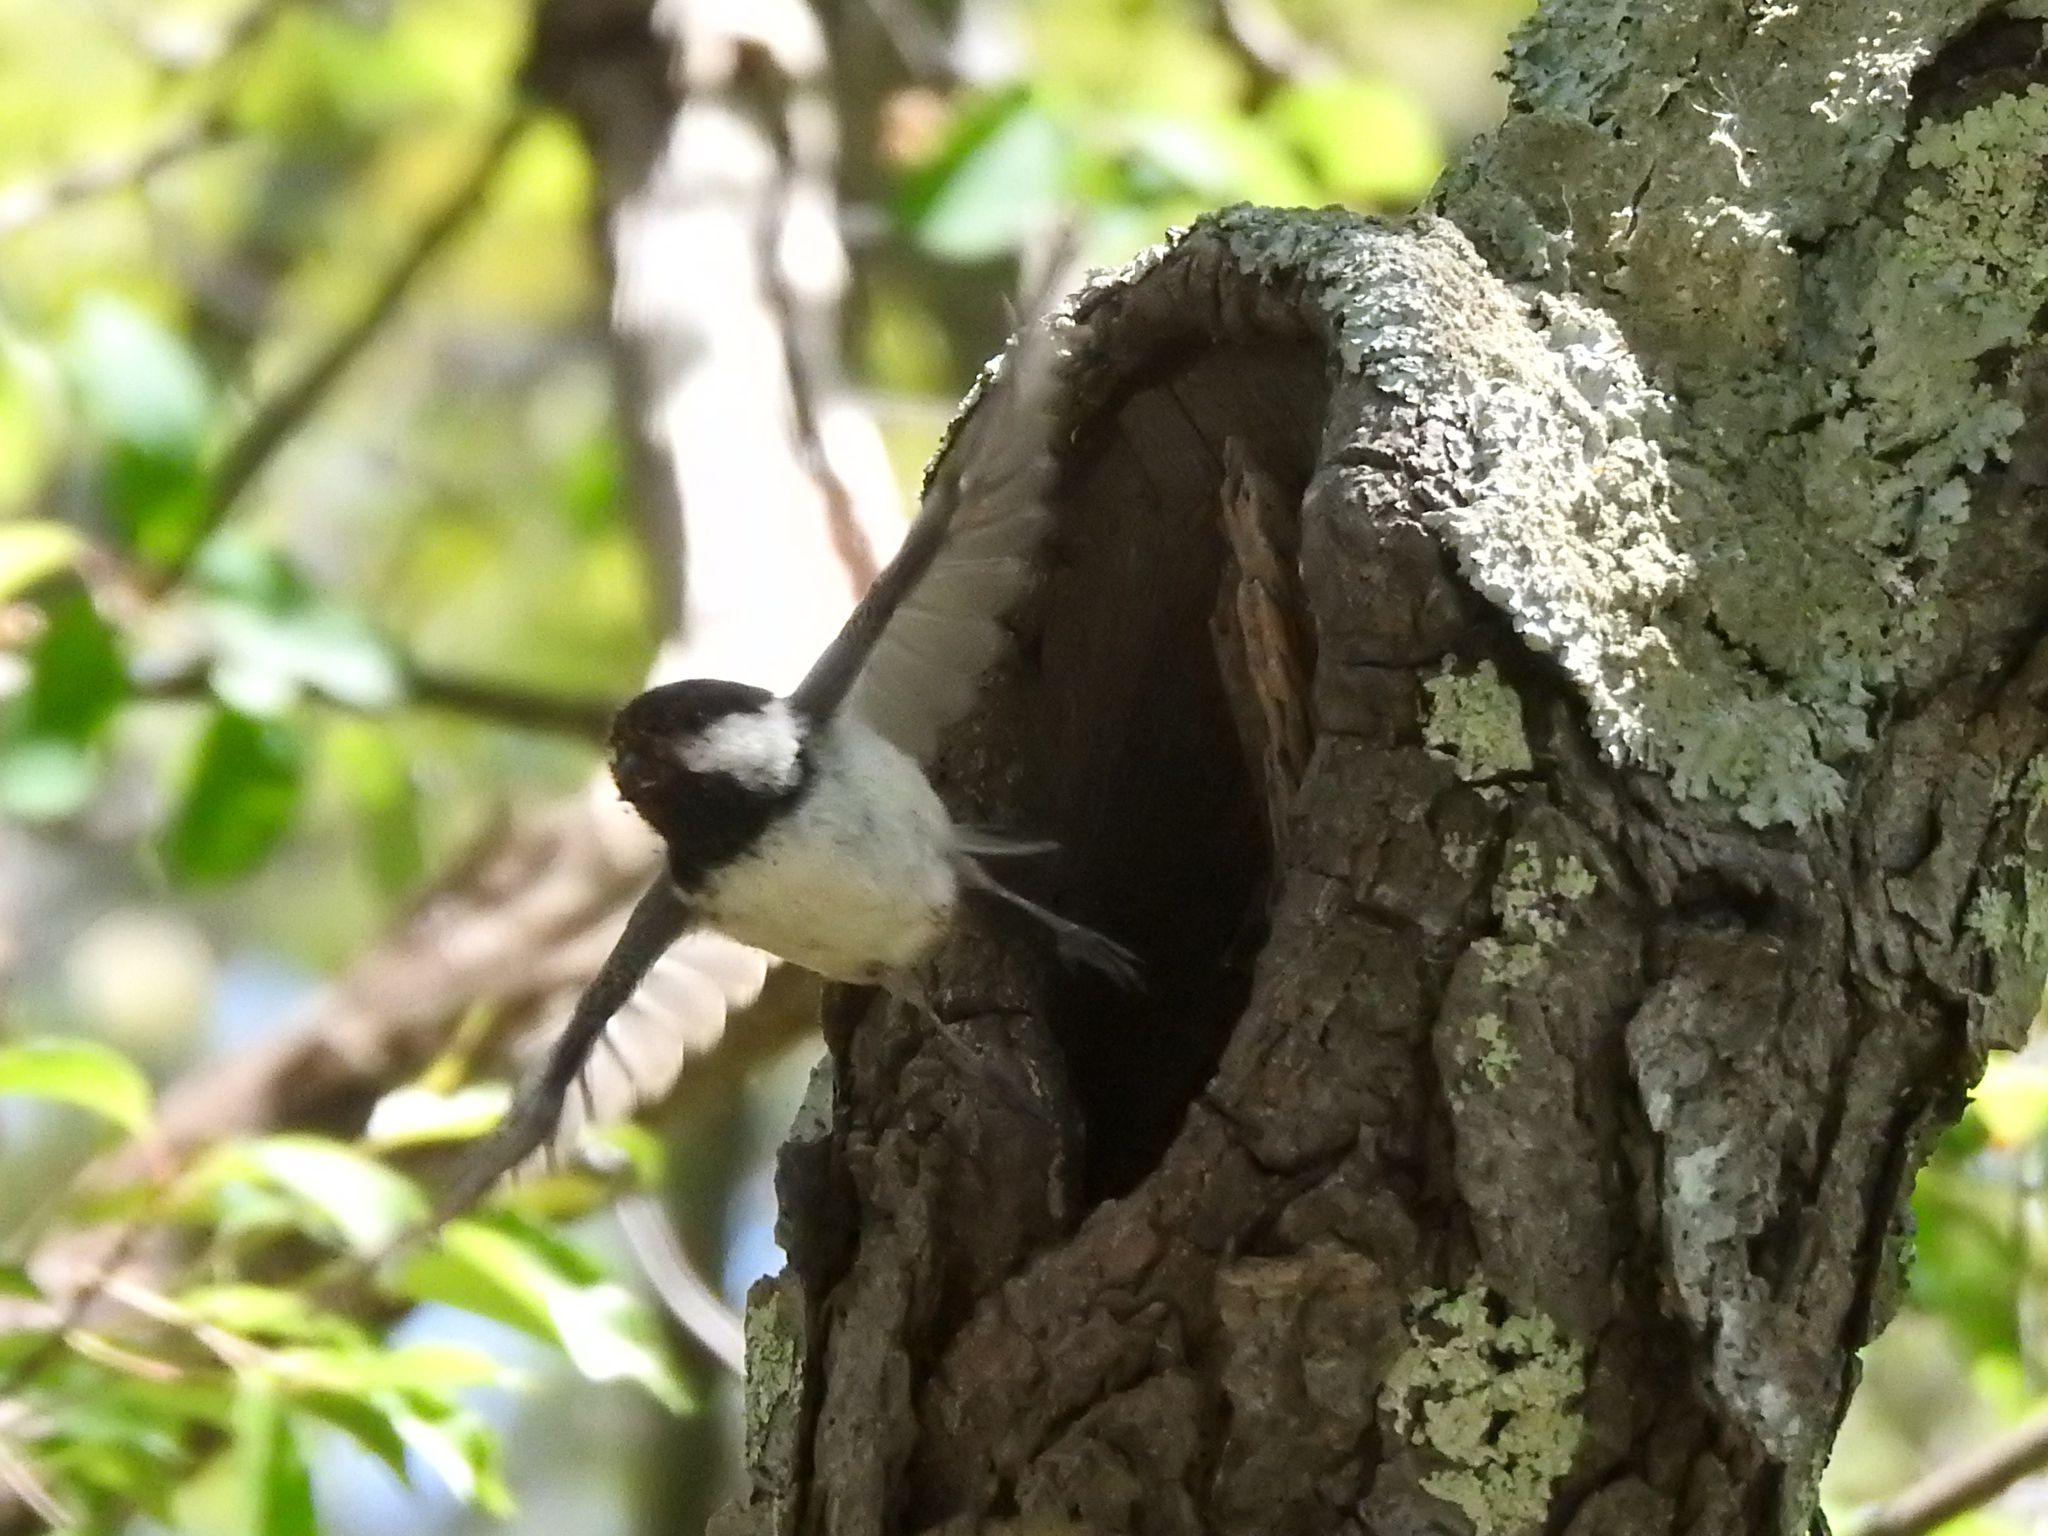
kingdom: Animalia
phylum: Chordata
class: Aves
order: Passeriformes
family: Paridae
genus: Poecile
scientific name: Poecile atricapillus
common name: Black-capped chickadee
